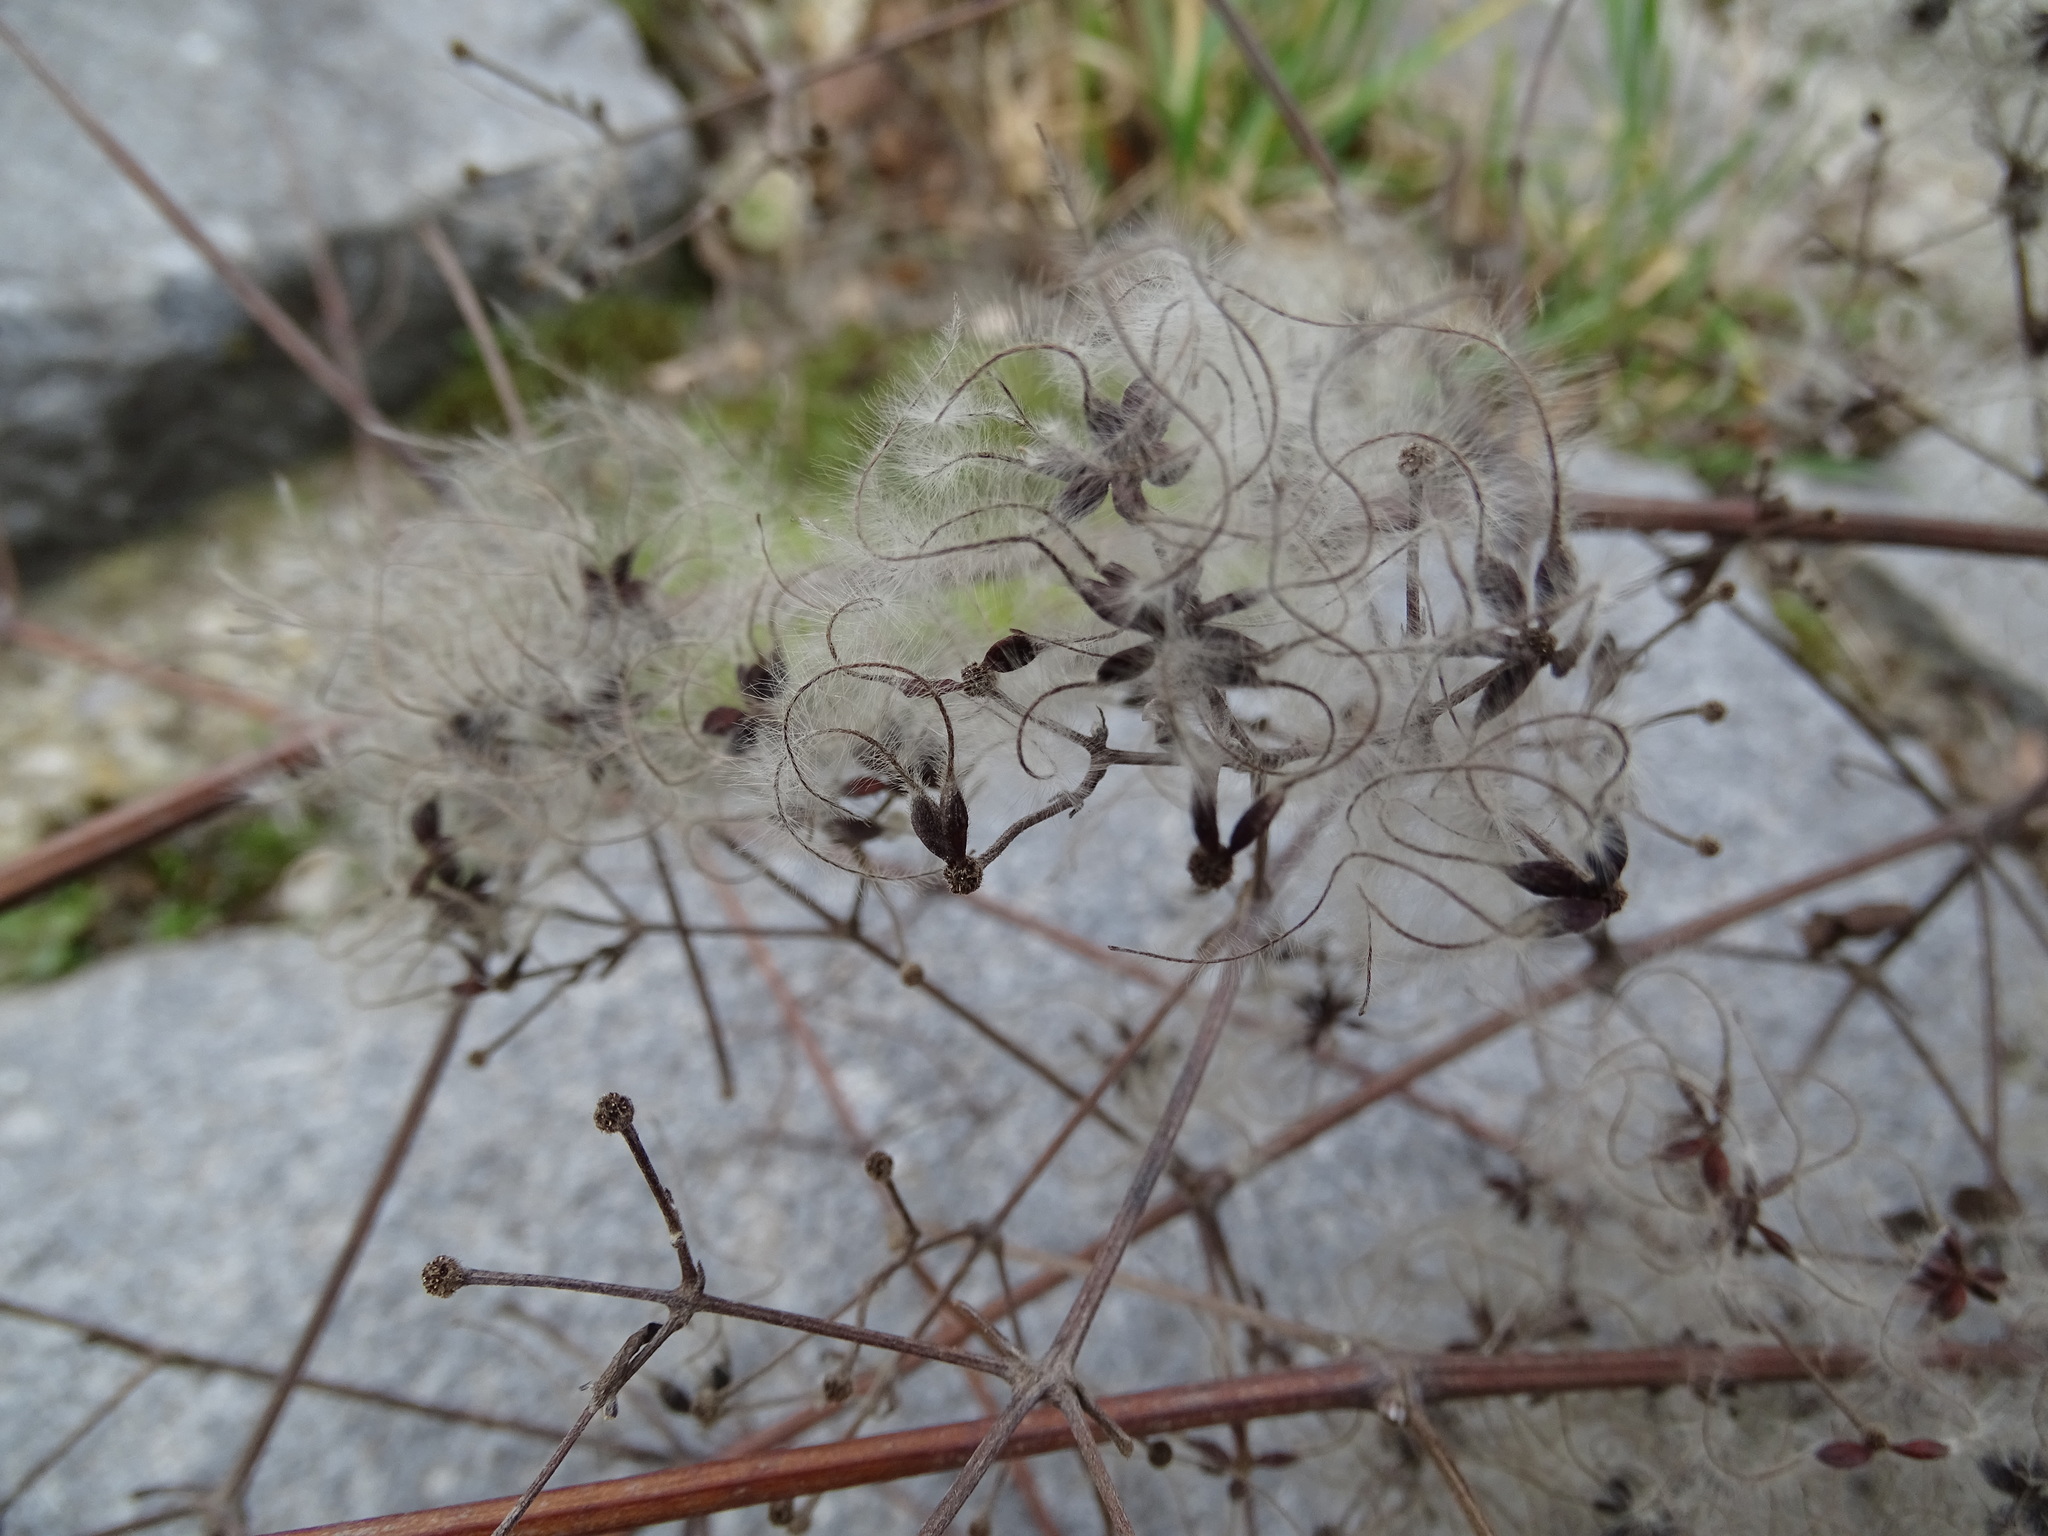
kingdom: Plantae
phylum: Tracheophyta
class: Magnoliopsida
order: Ranunculales
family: Ranunculaceae
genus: Clematis
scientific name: Clematis vitalba
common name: Evergreen clematis
